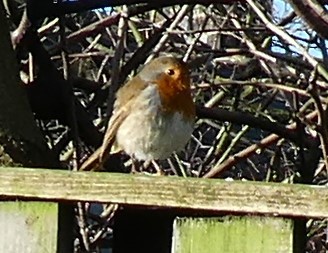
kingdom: Animalia
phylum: Chordata
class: Aves
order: Passeriformes
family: Muscicapidae
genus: Erithacus
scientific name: Erithacus rubecula
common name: European robin
